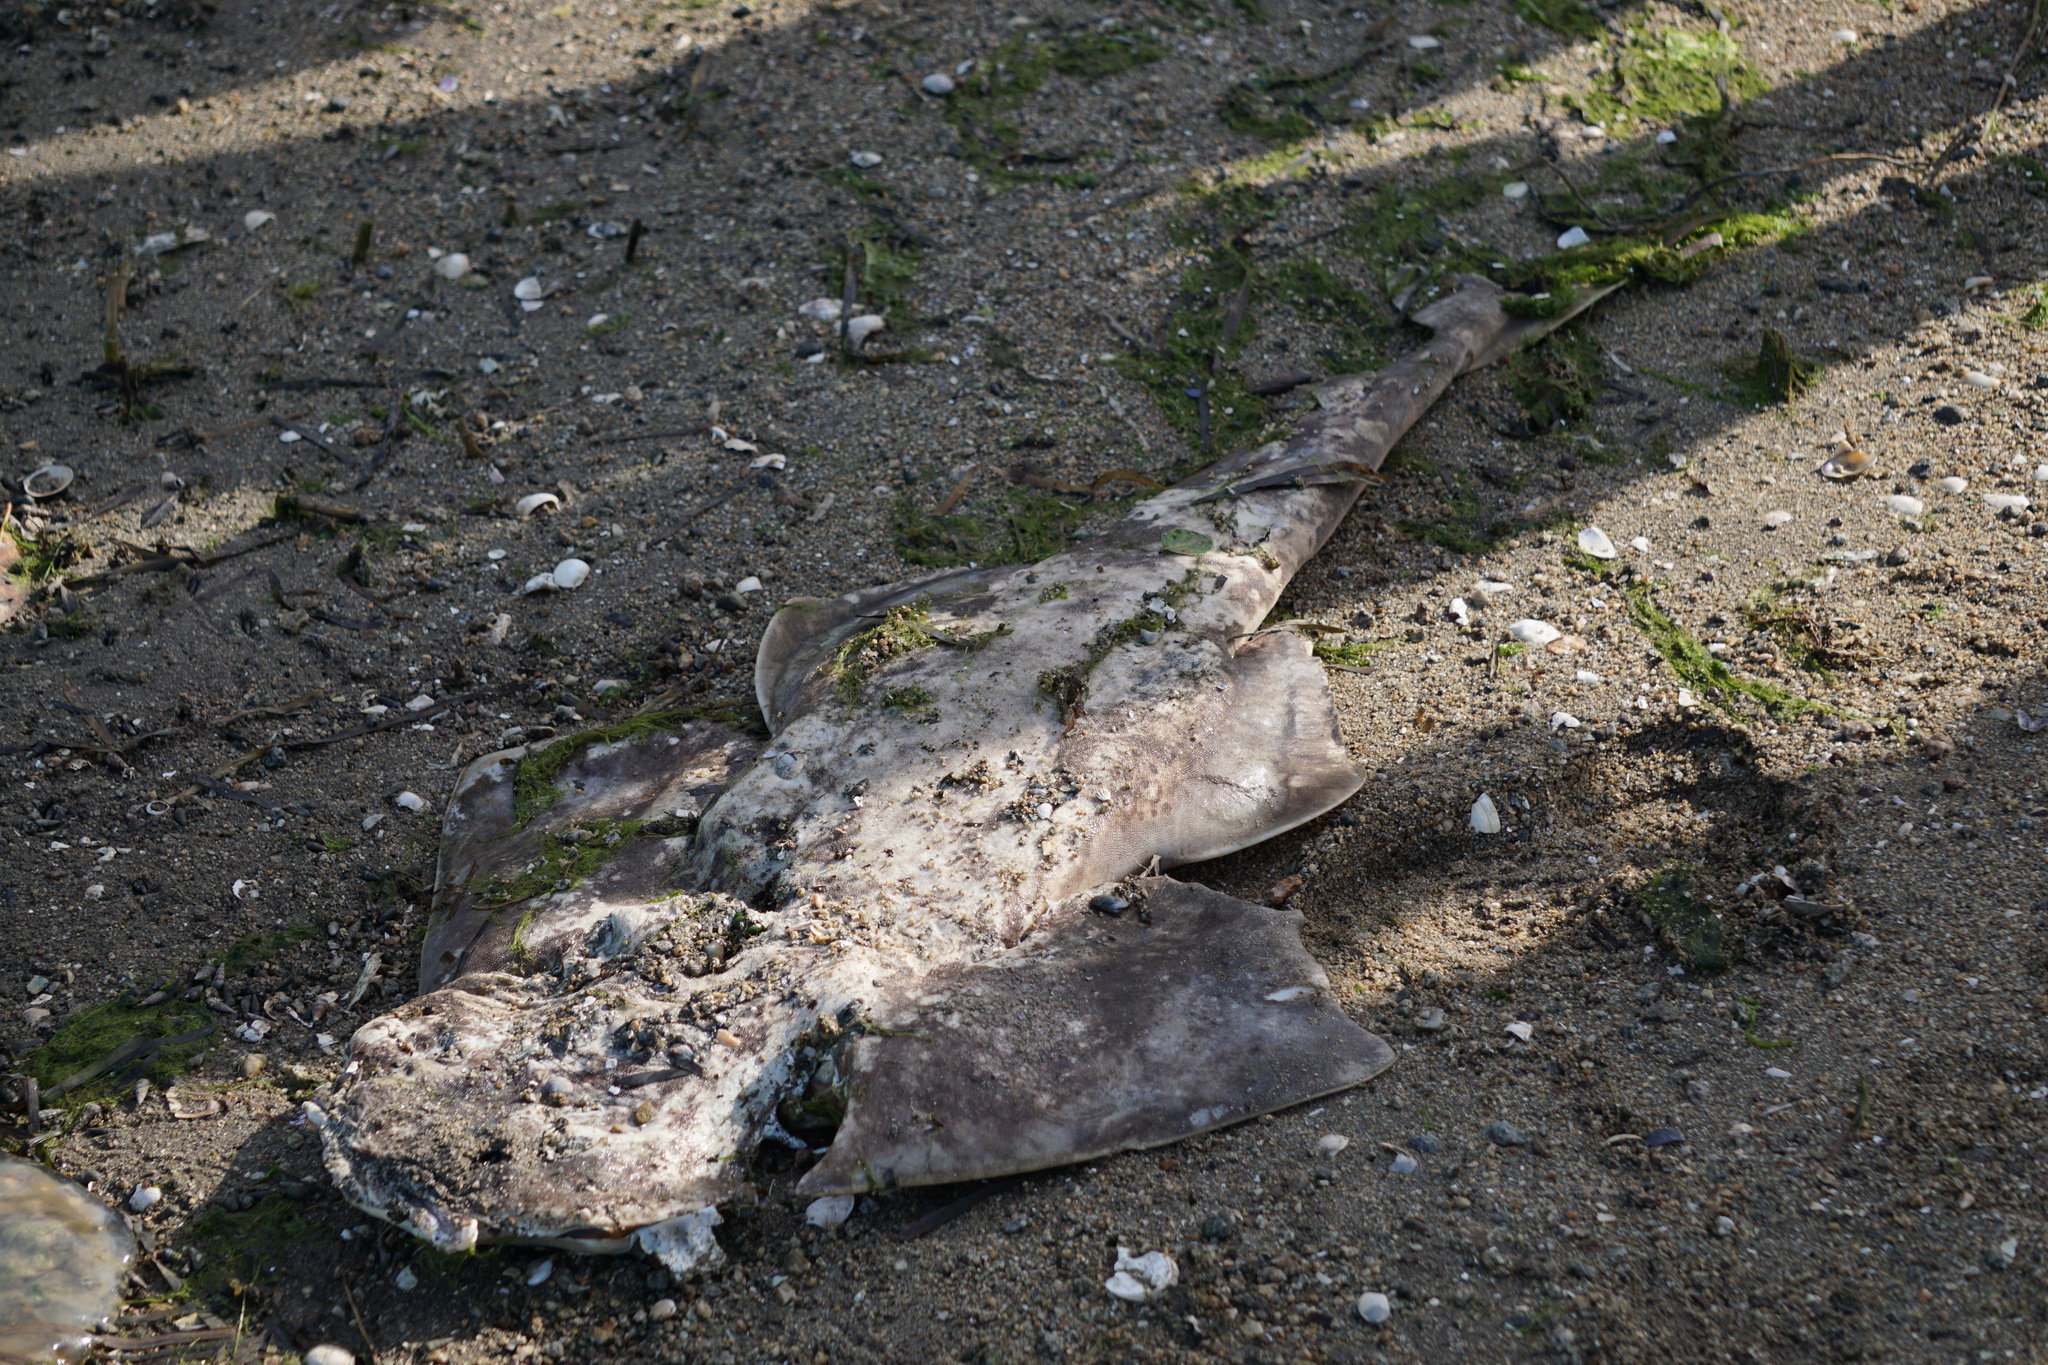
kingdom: Animalia
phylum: Chordata
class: Elasmobranchii
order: Squatiniformes
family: Squatinidae
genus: Squatina
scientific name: Squatina californica
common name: Pacific angel shark
